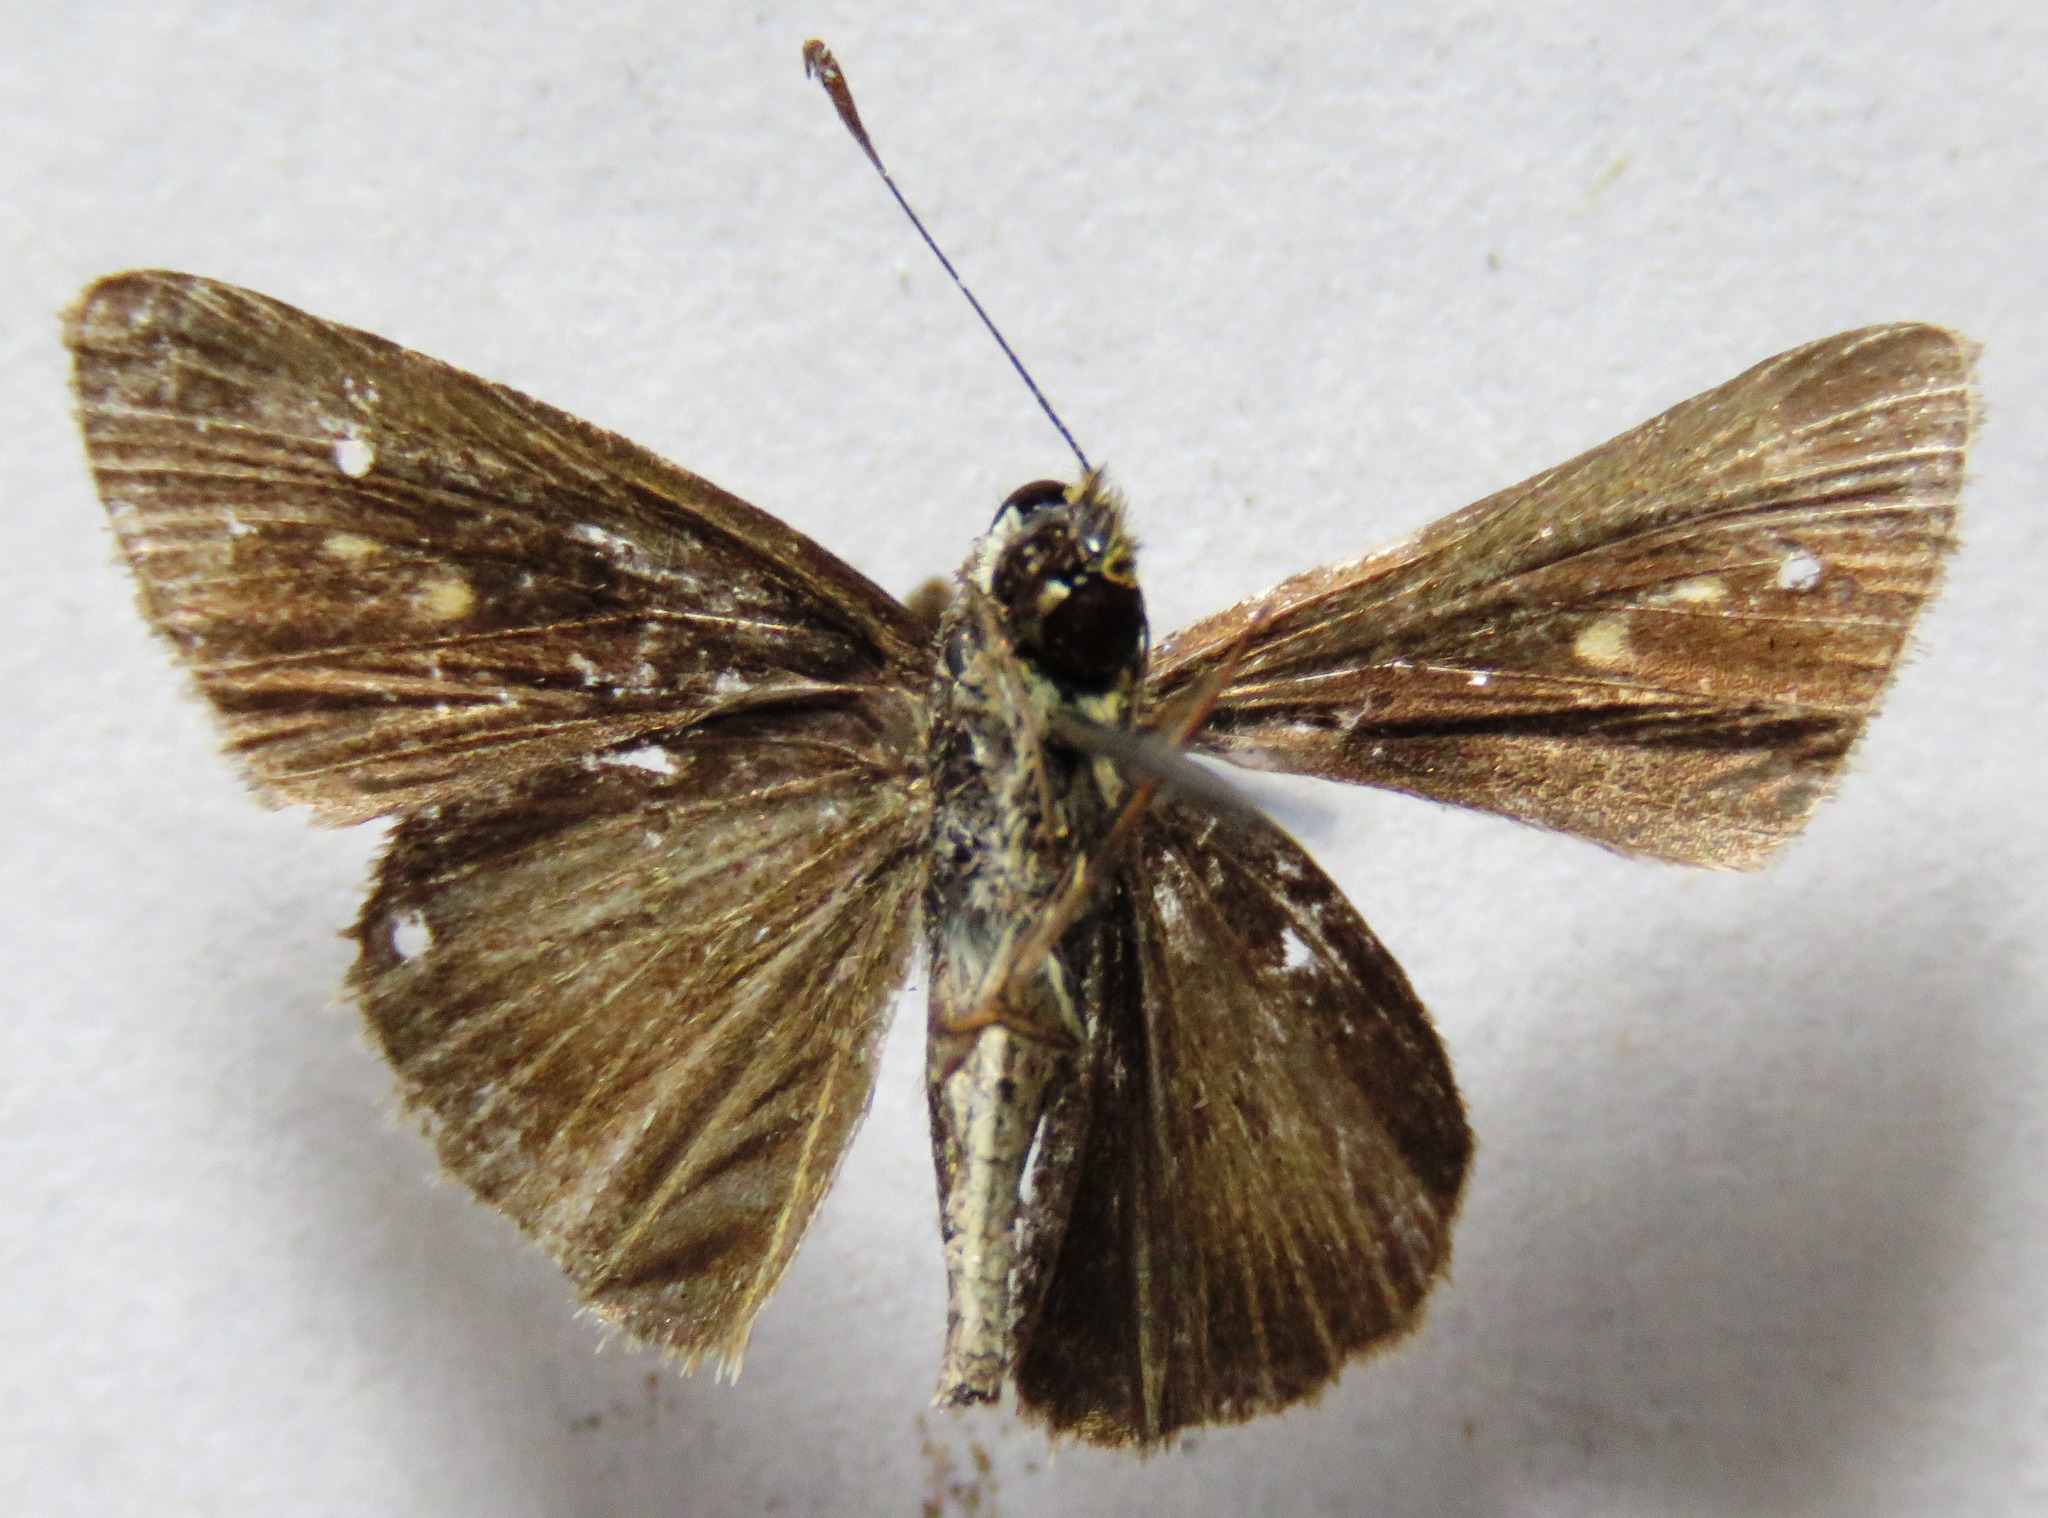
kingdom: Animalia
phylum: Arthropoda
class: Insecta
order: Lepidoptera
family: Hesperiidae
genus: Vehilius
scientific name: Vehilius stictomenes
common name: Pasture skipper
